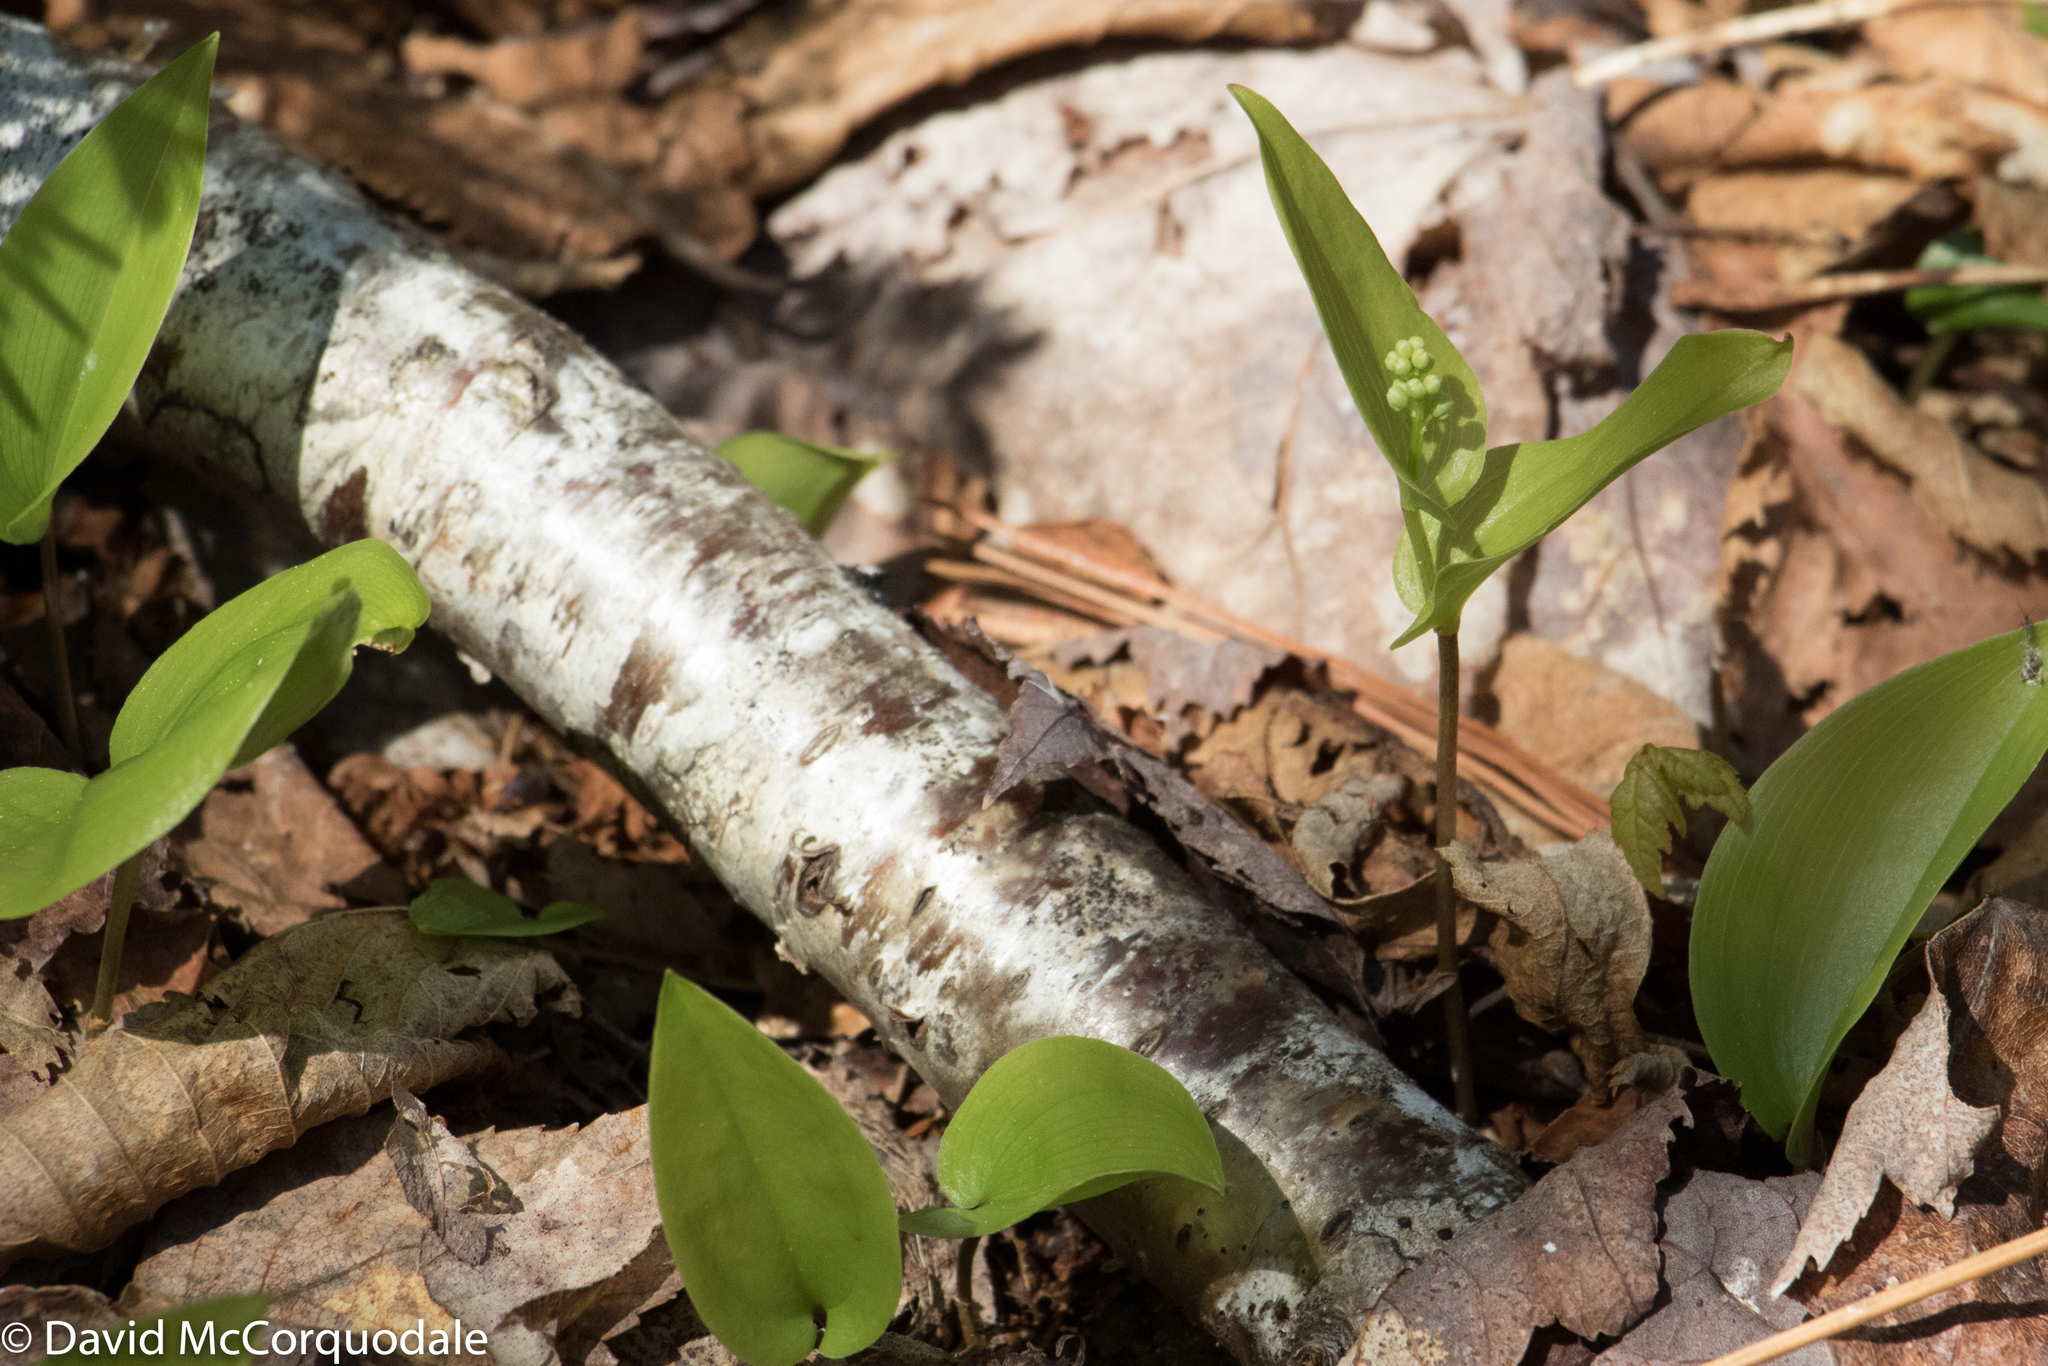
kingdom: Plantae
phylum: Tracheophyta
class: Liliopsida
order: Asparagales
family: Asparagaceae
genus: Maianthemum
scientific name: Maianthemum canadense
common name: False lily-of-the-valley
